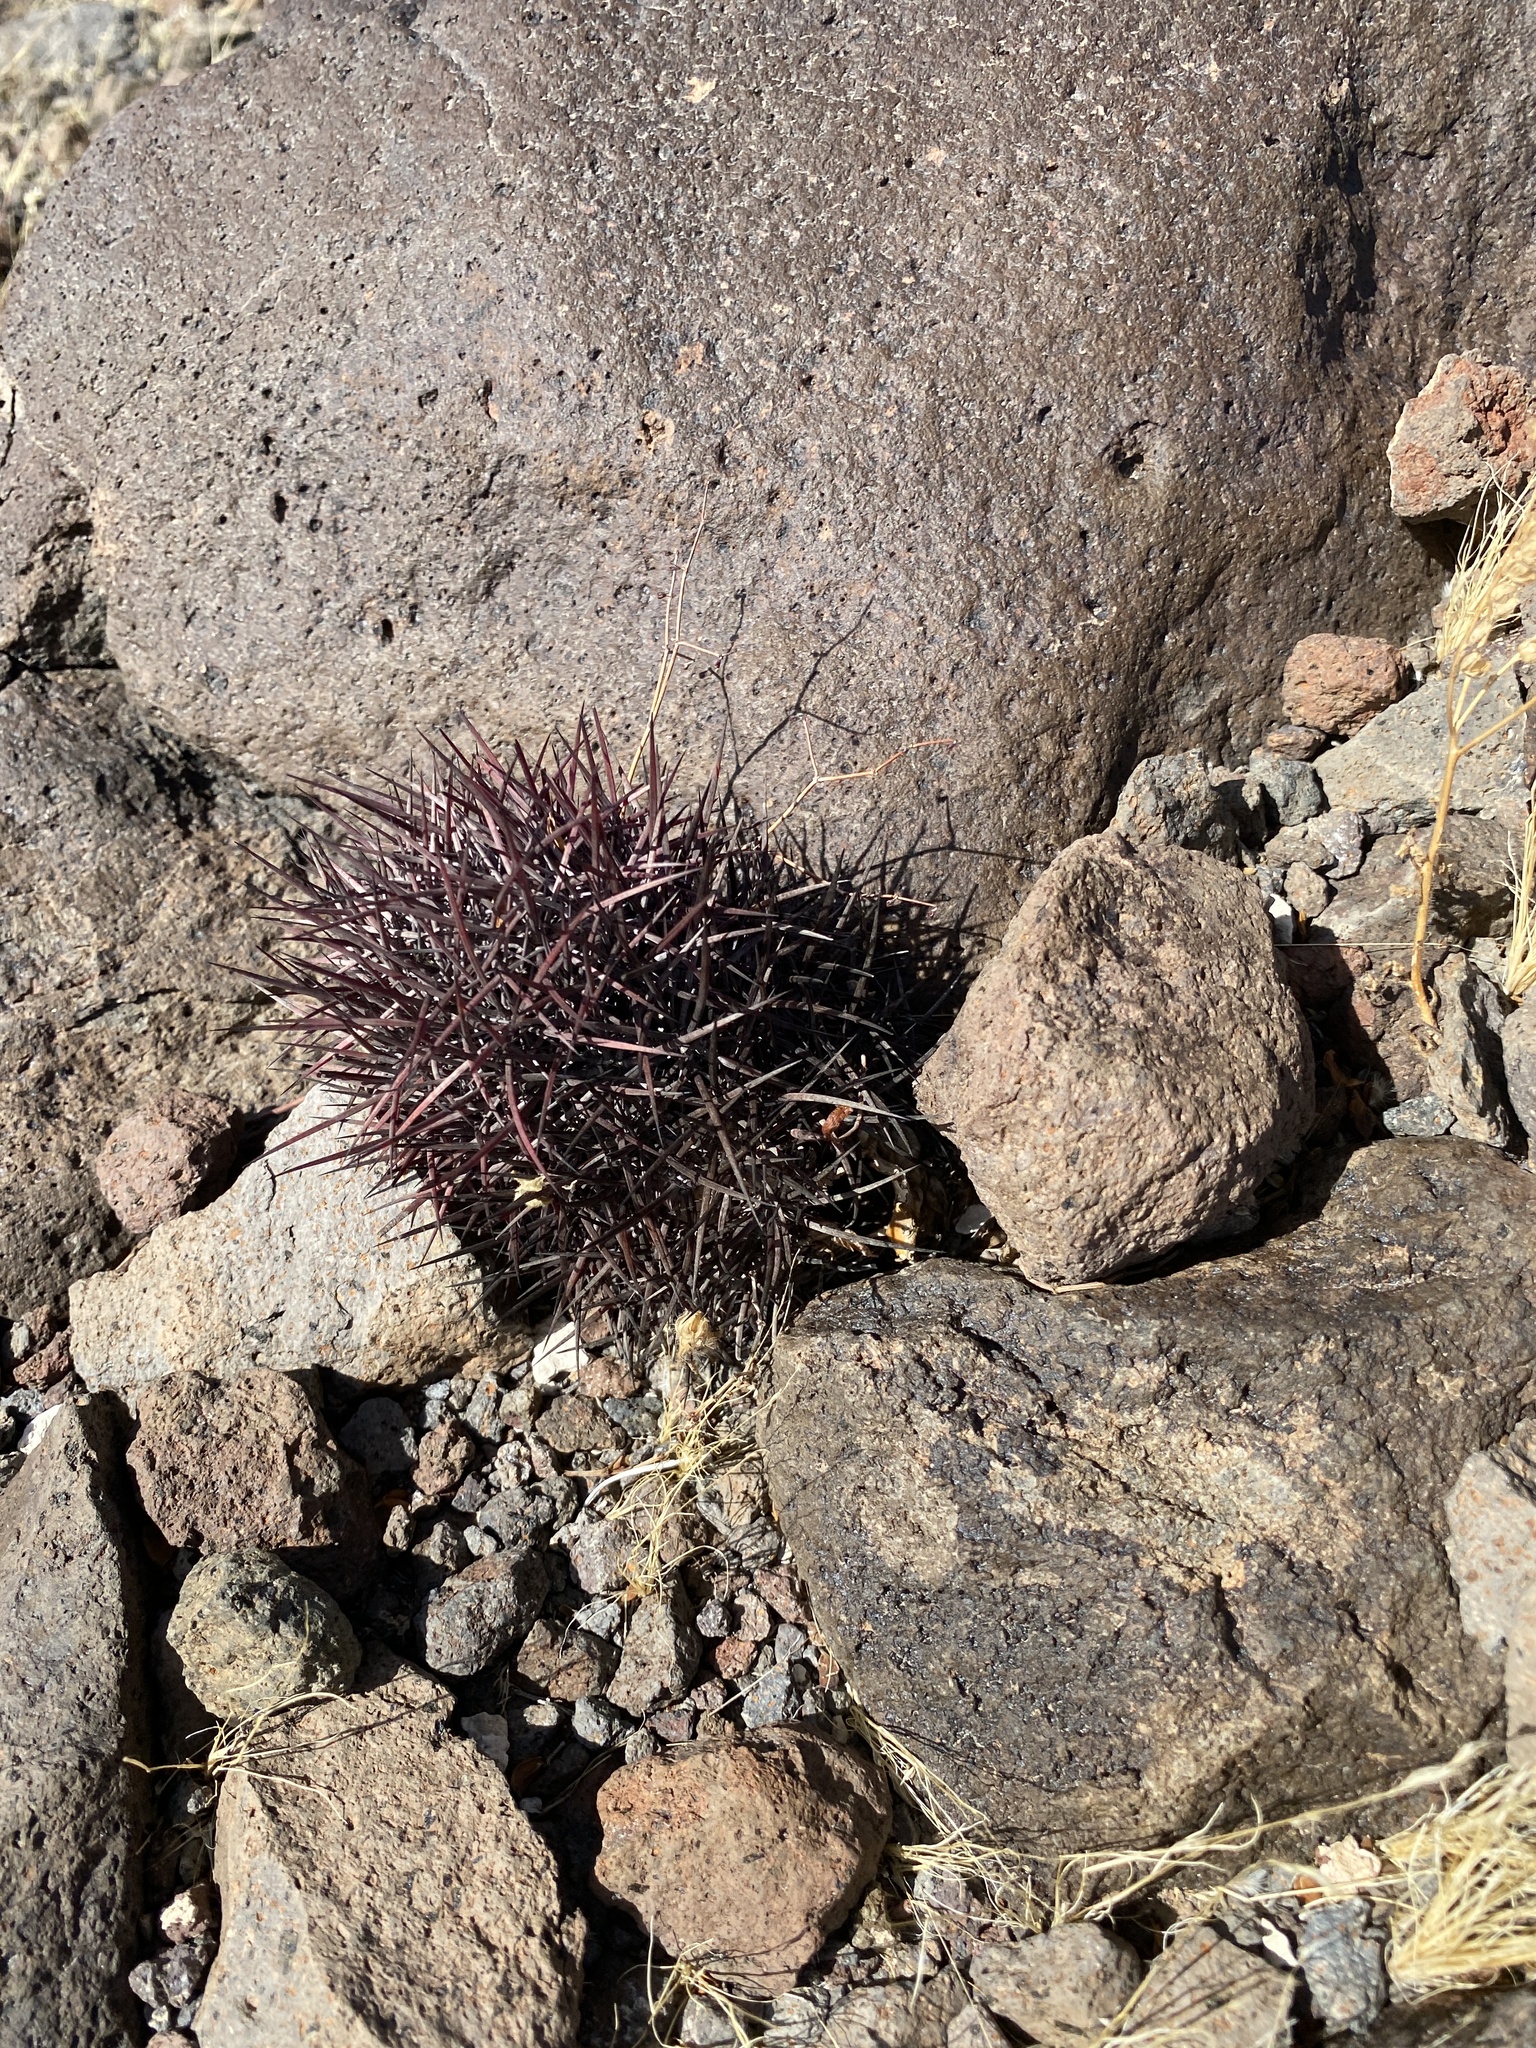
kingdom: Plantae
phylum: Tracheophyta
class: Magnoliopsida
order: Caryophyllales
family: Cactaceae
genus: Sclerocactus
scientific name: Sclerocactus johnsonii
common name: Eight-spine fishhook cactus
